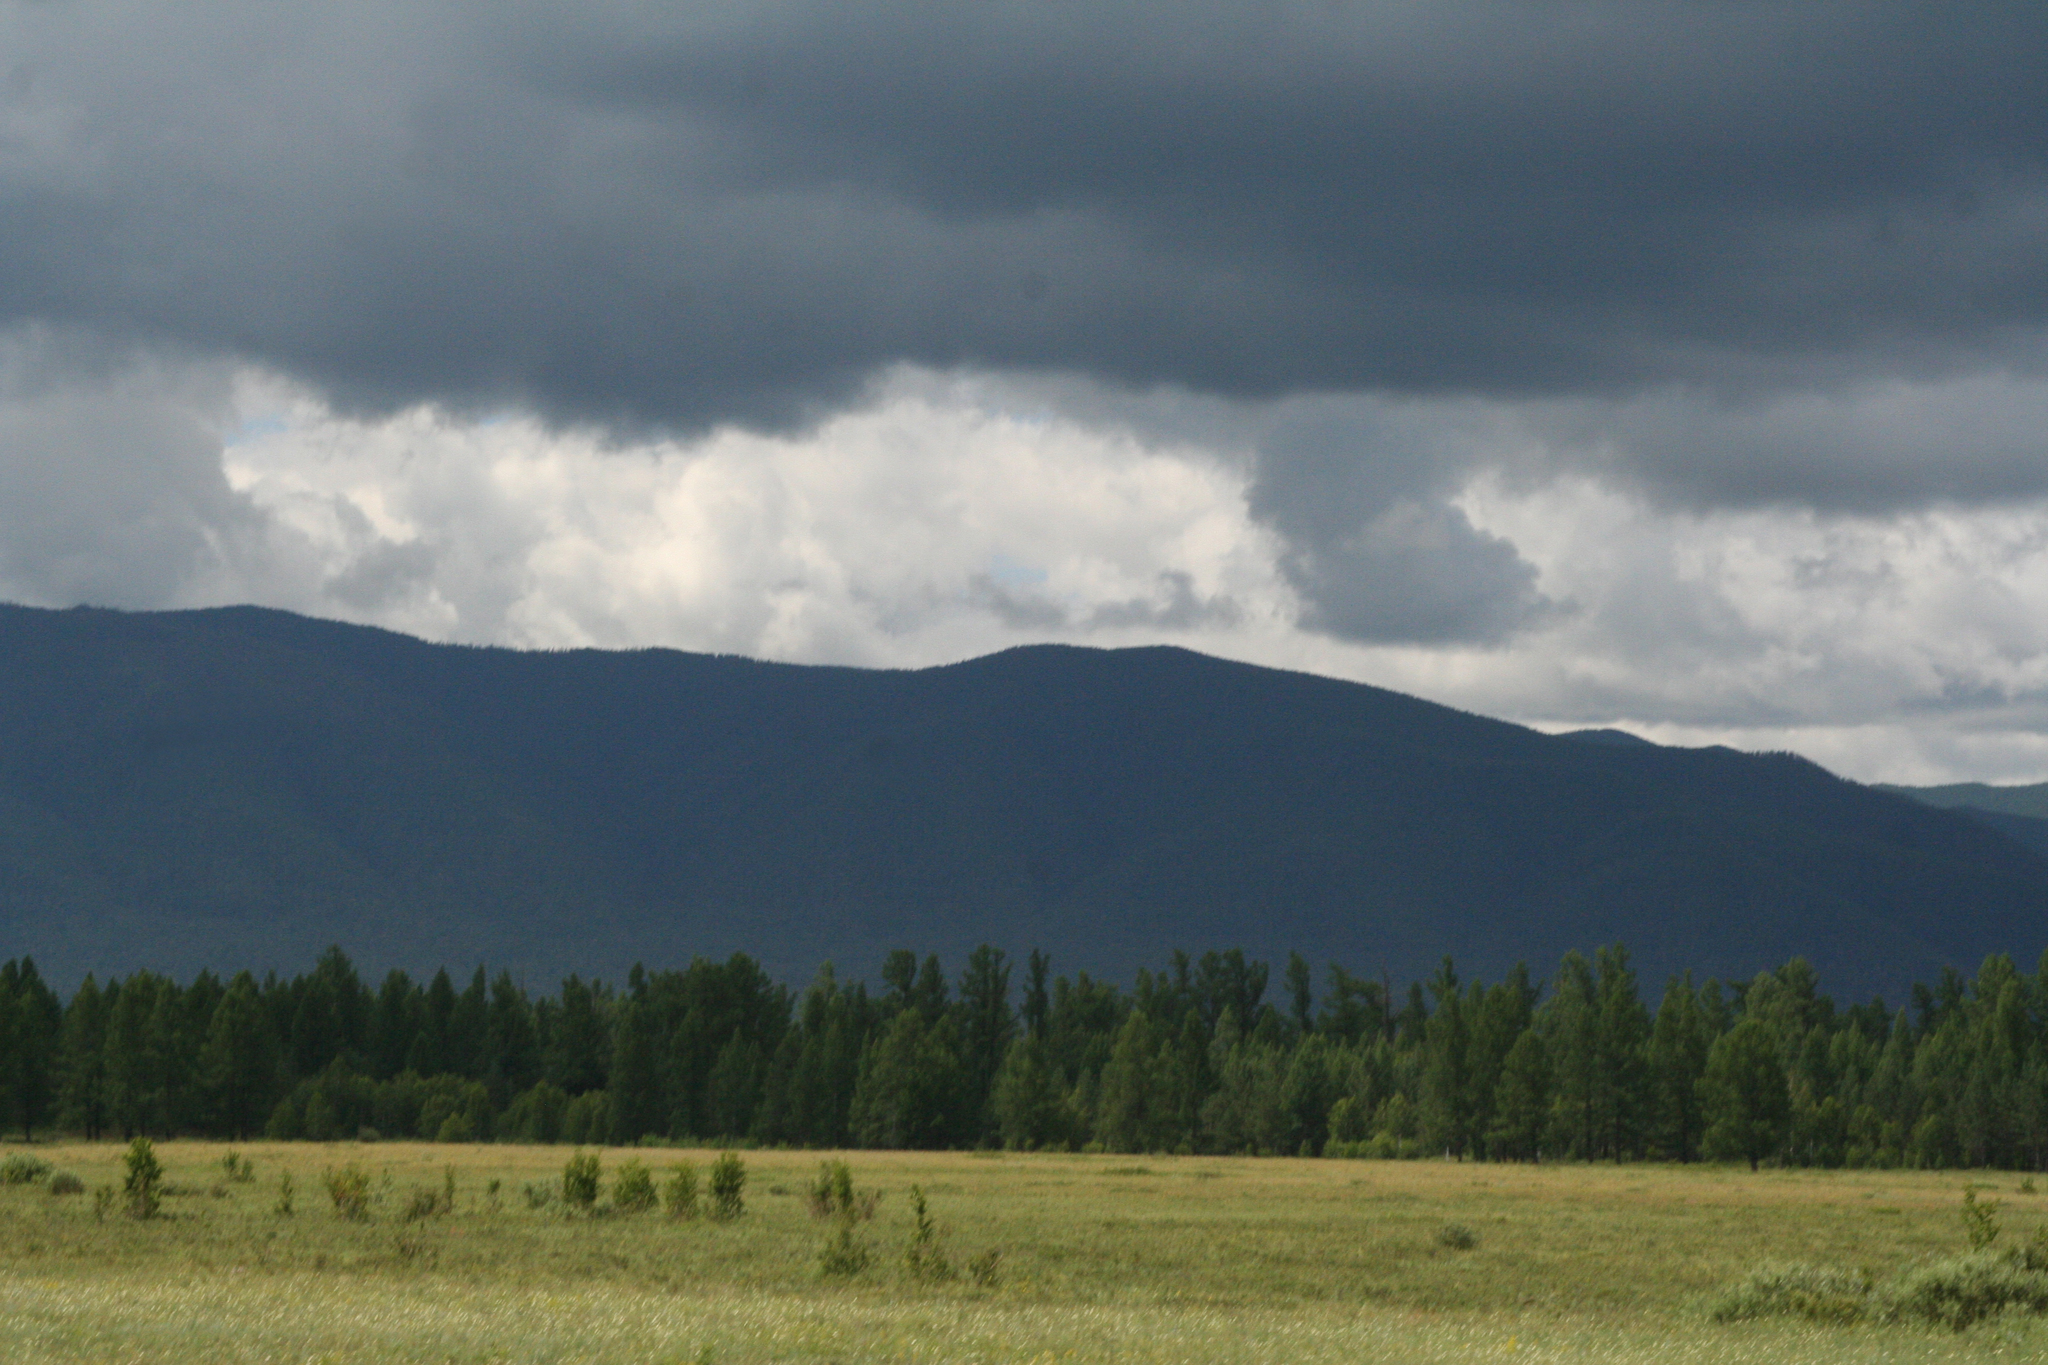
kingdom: Plantae
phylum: Tracheophyta
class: Pinopsida
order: Pinales
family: Pinaceae
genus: Larix
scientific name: Larix sibirica
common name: Siberian larch
